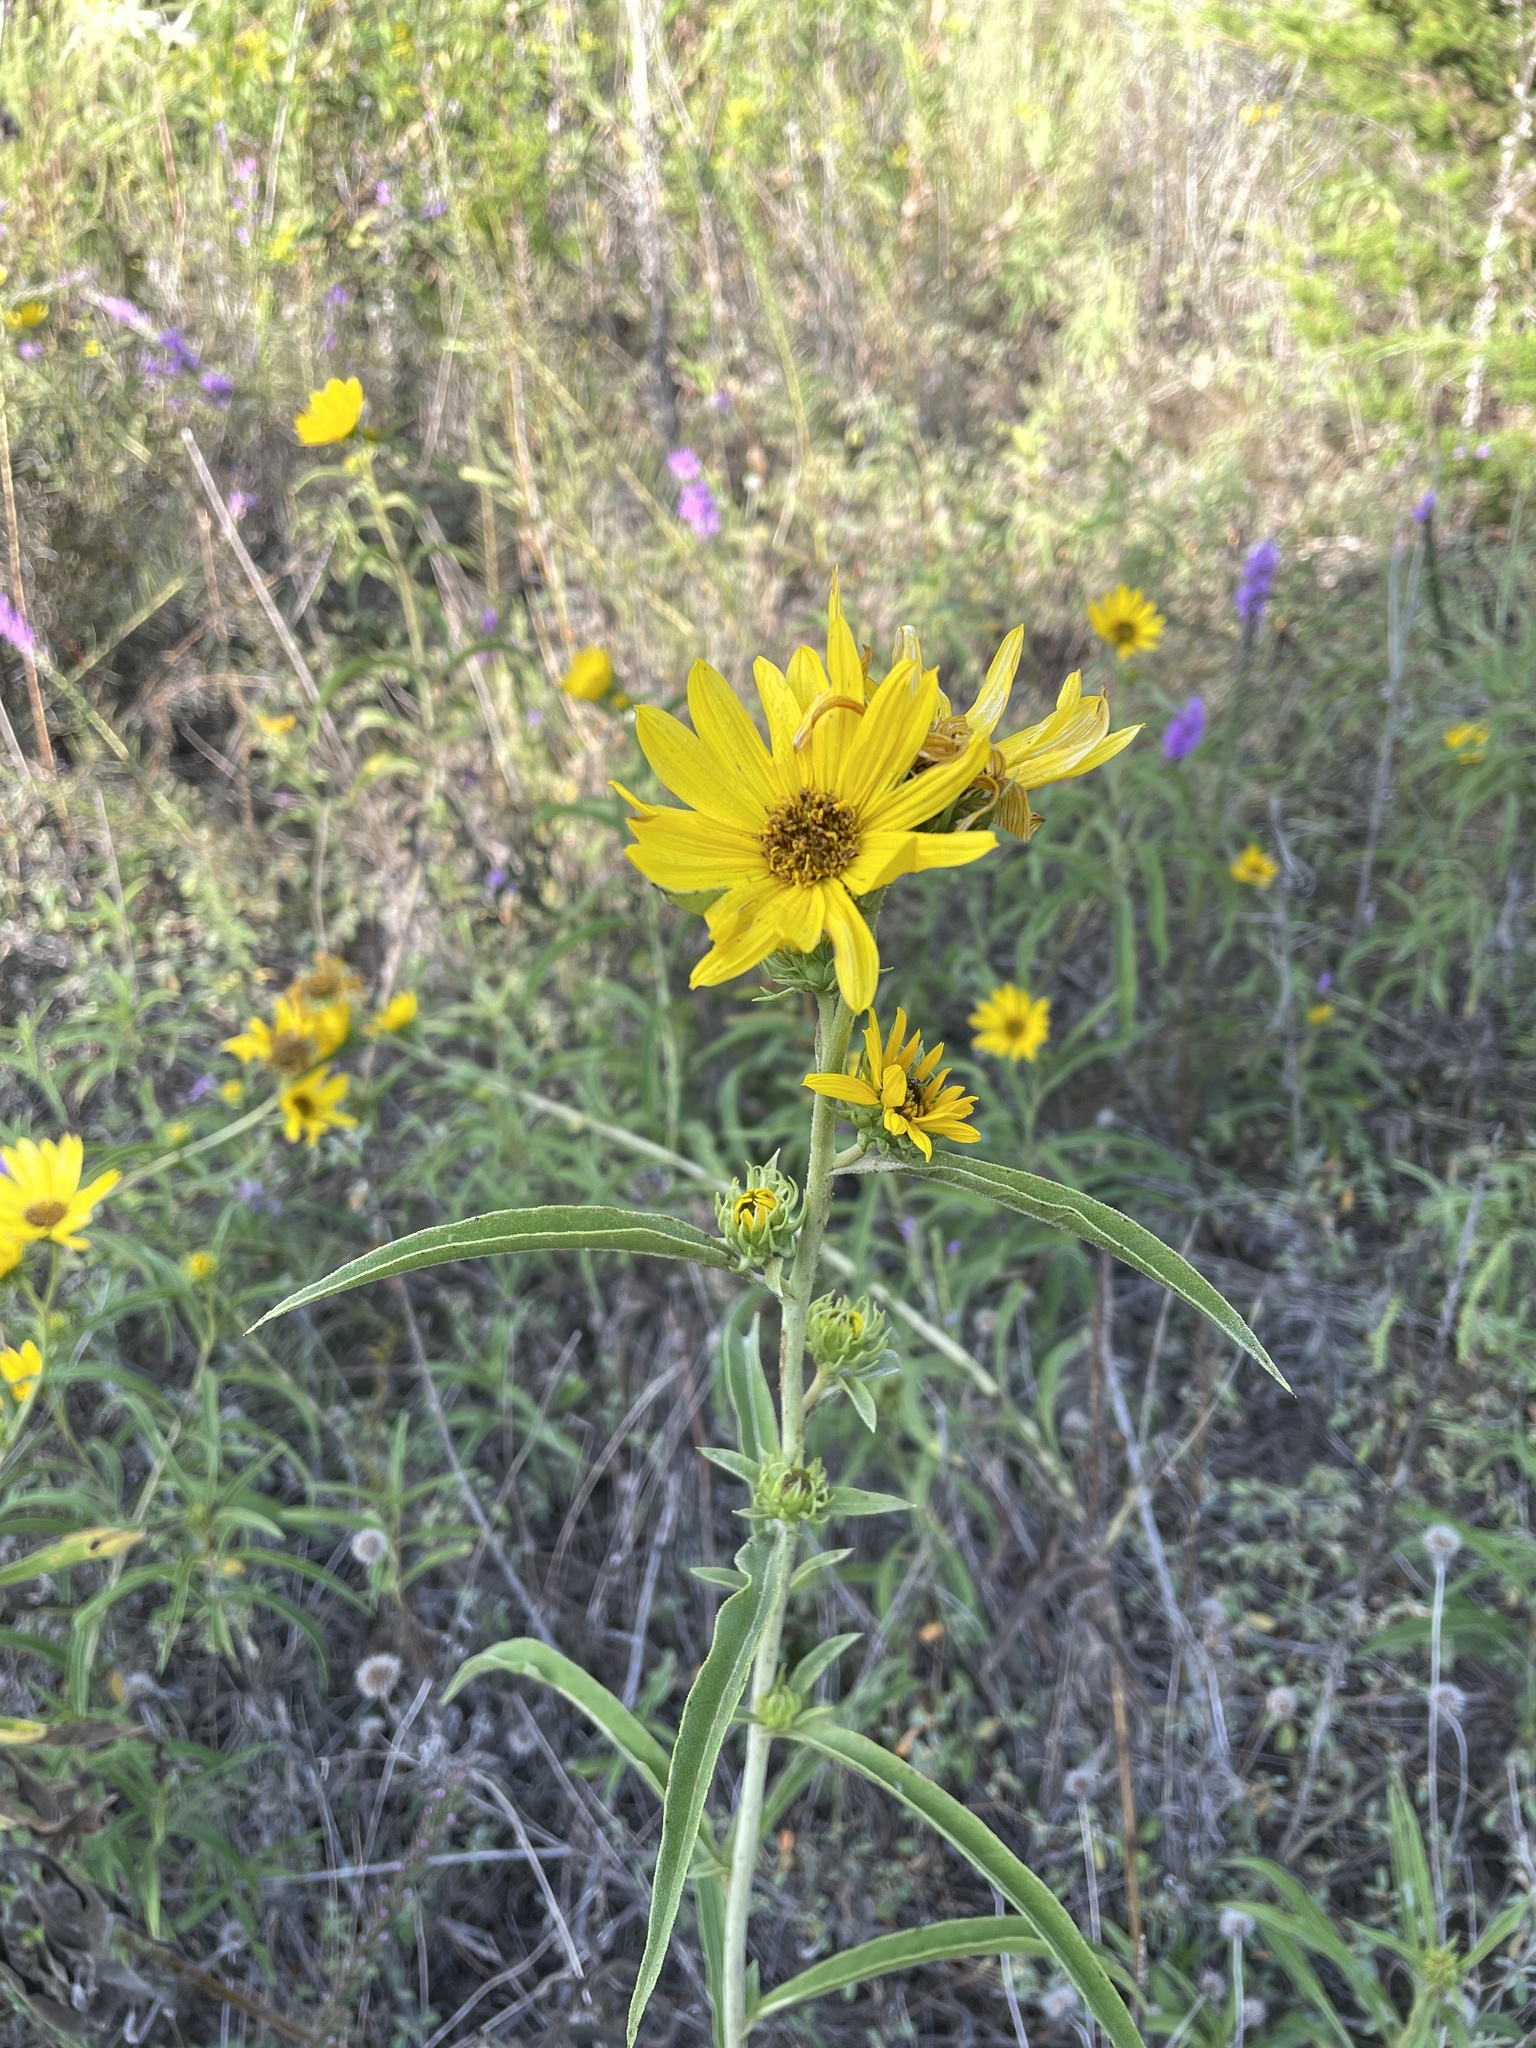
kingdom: Plantae
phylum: Tracheophyta
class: Magnoliopsida
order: Asterales
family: Asteraceae
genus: Helianthus
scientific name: Helianthus maximiliani
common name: Maximilian's sunflower
